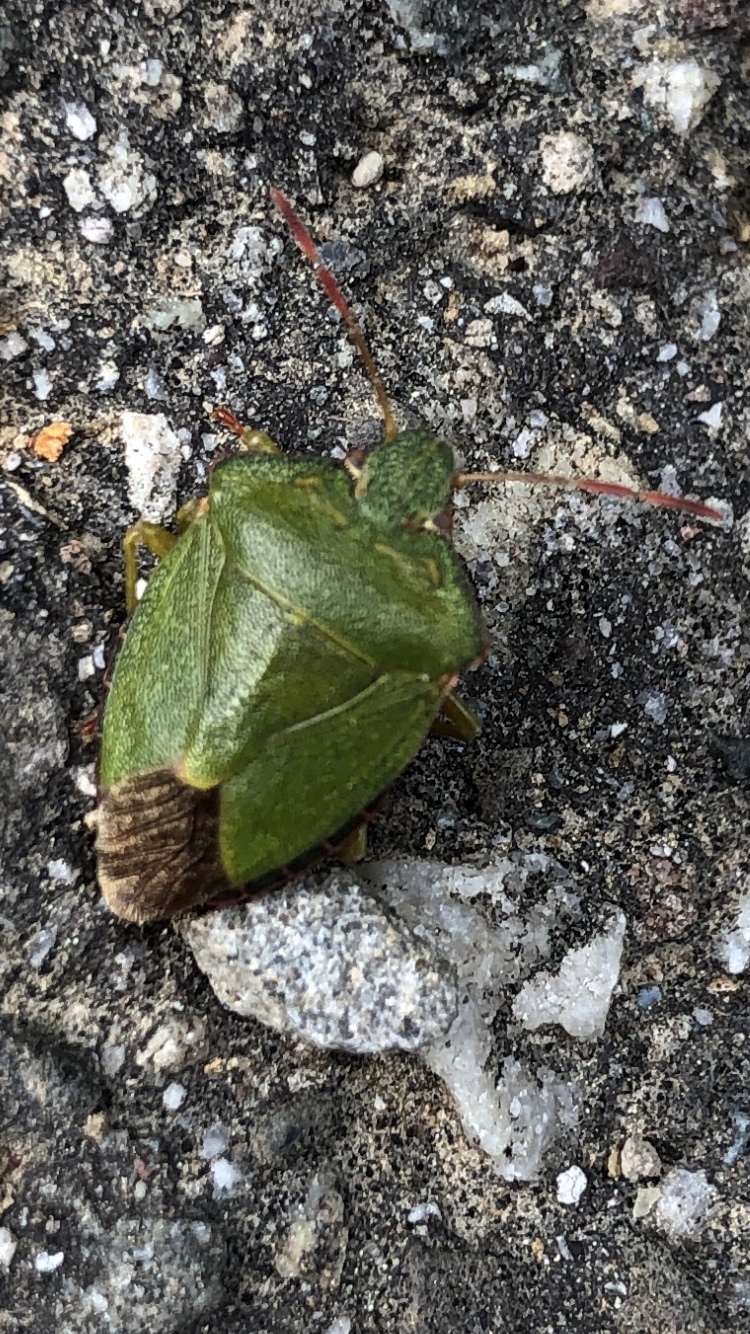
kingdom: Animalia
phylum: Arthropoda
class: Insecta
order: Hemiptera
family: Pentatomidae
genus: Palomena
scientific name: Palomena prasina
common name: Green shieldbug
